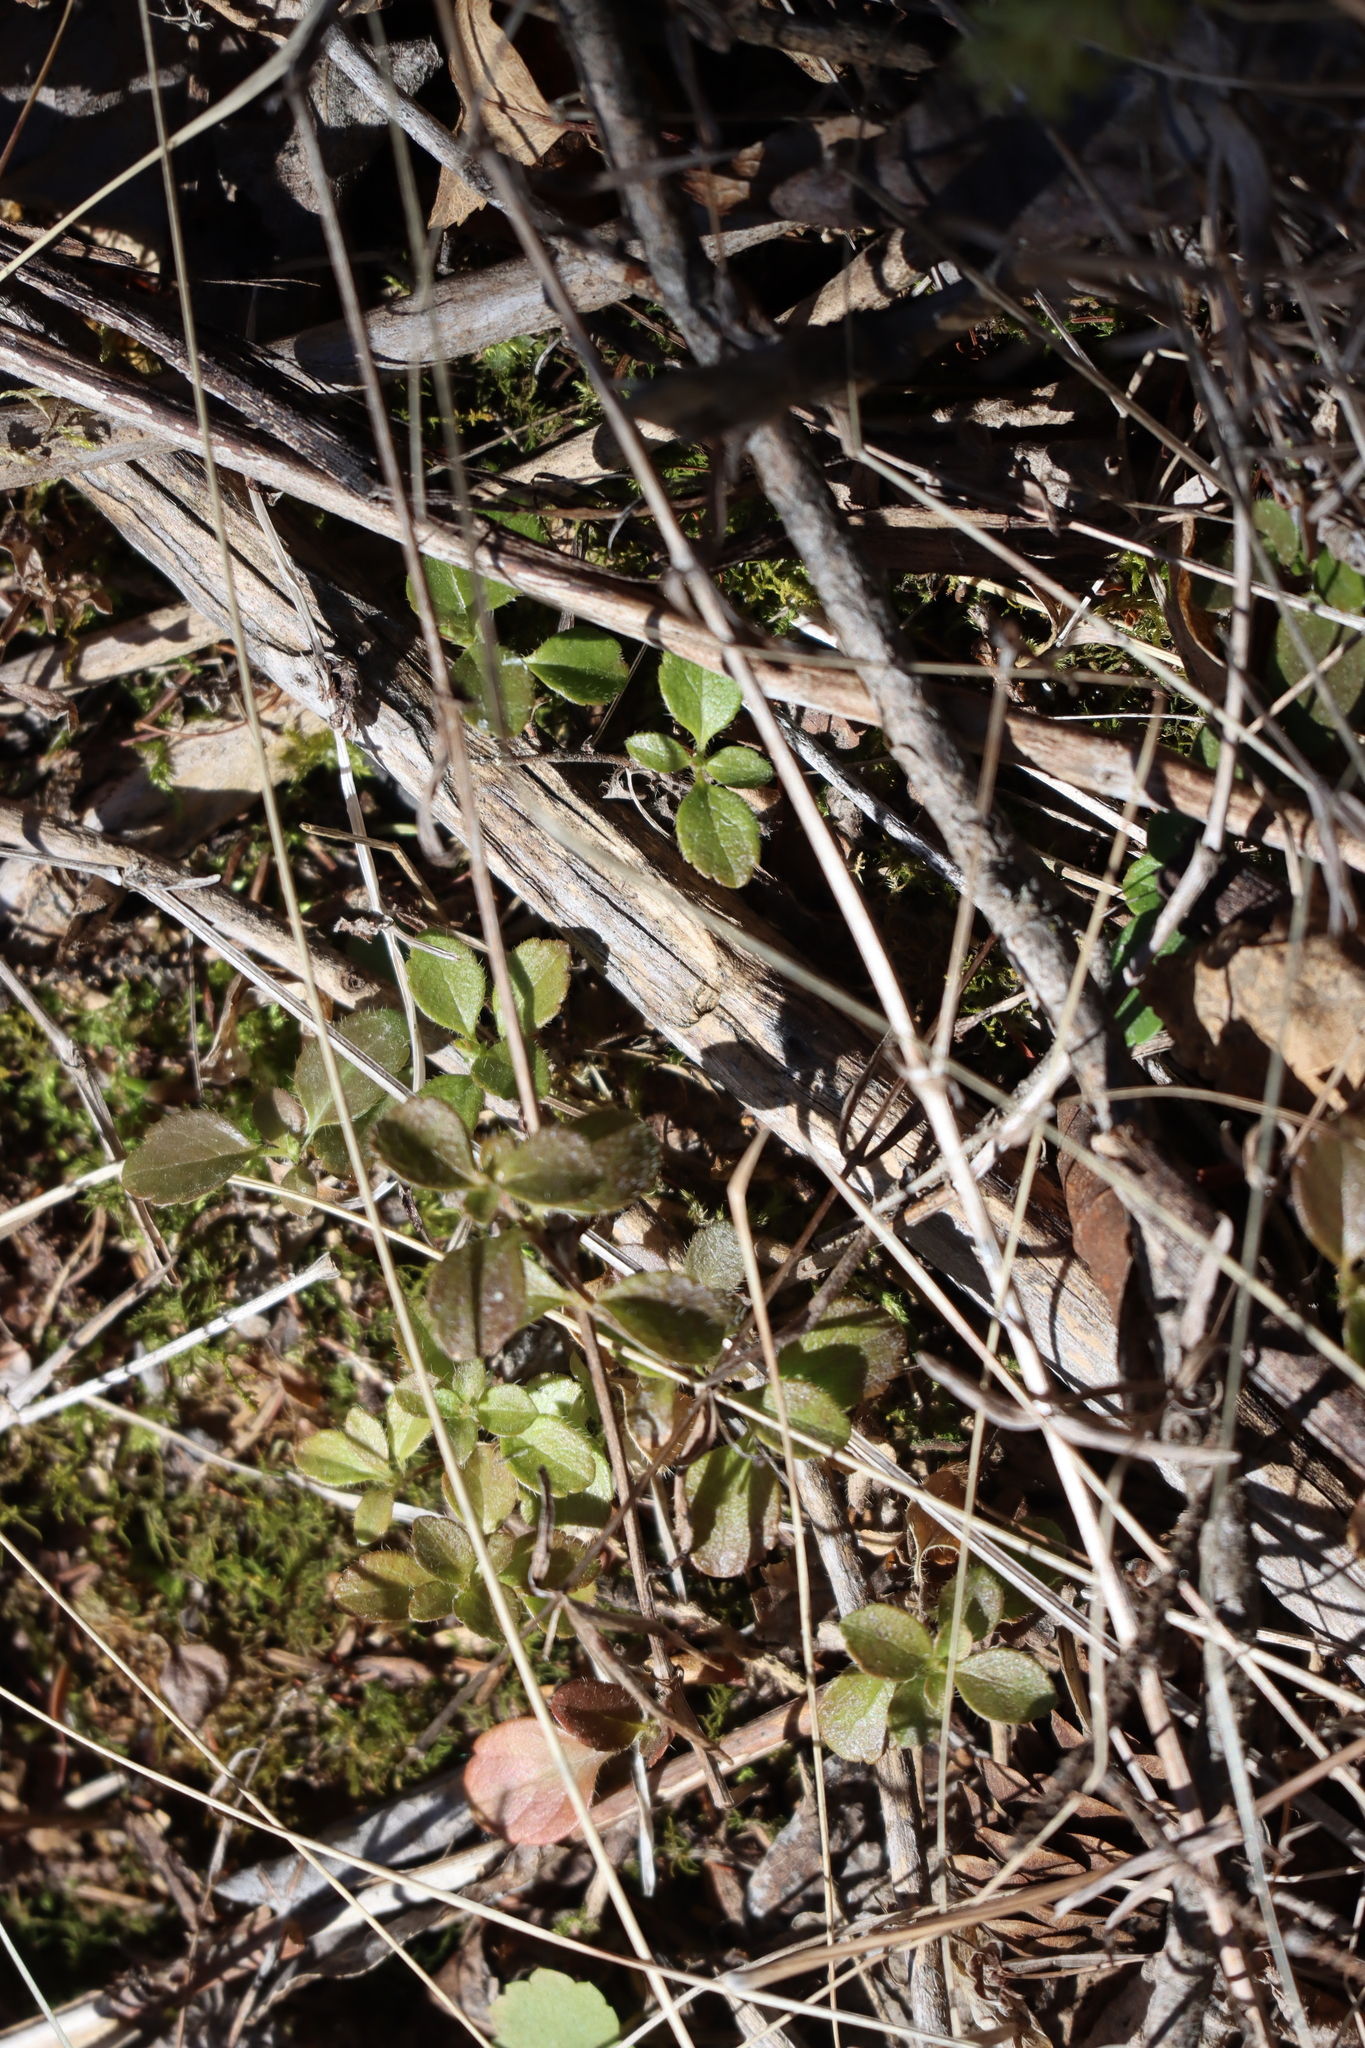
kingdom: Plantae
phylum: Tracheophyta
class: Magnoliopsida
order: Dipsacales
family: Caprifoliaceae
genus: Linnaea
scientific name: Linnaea borealis
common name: Twinflower
